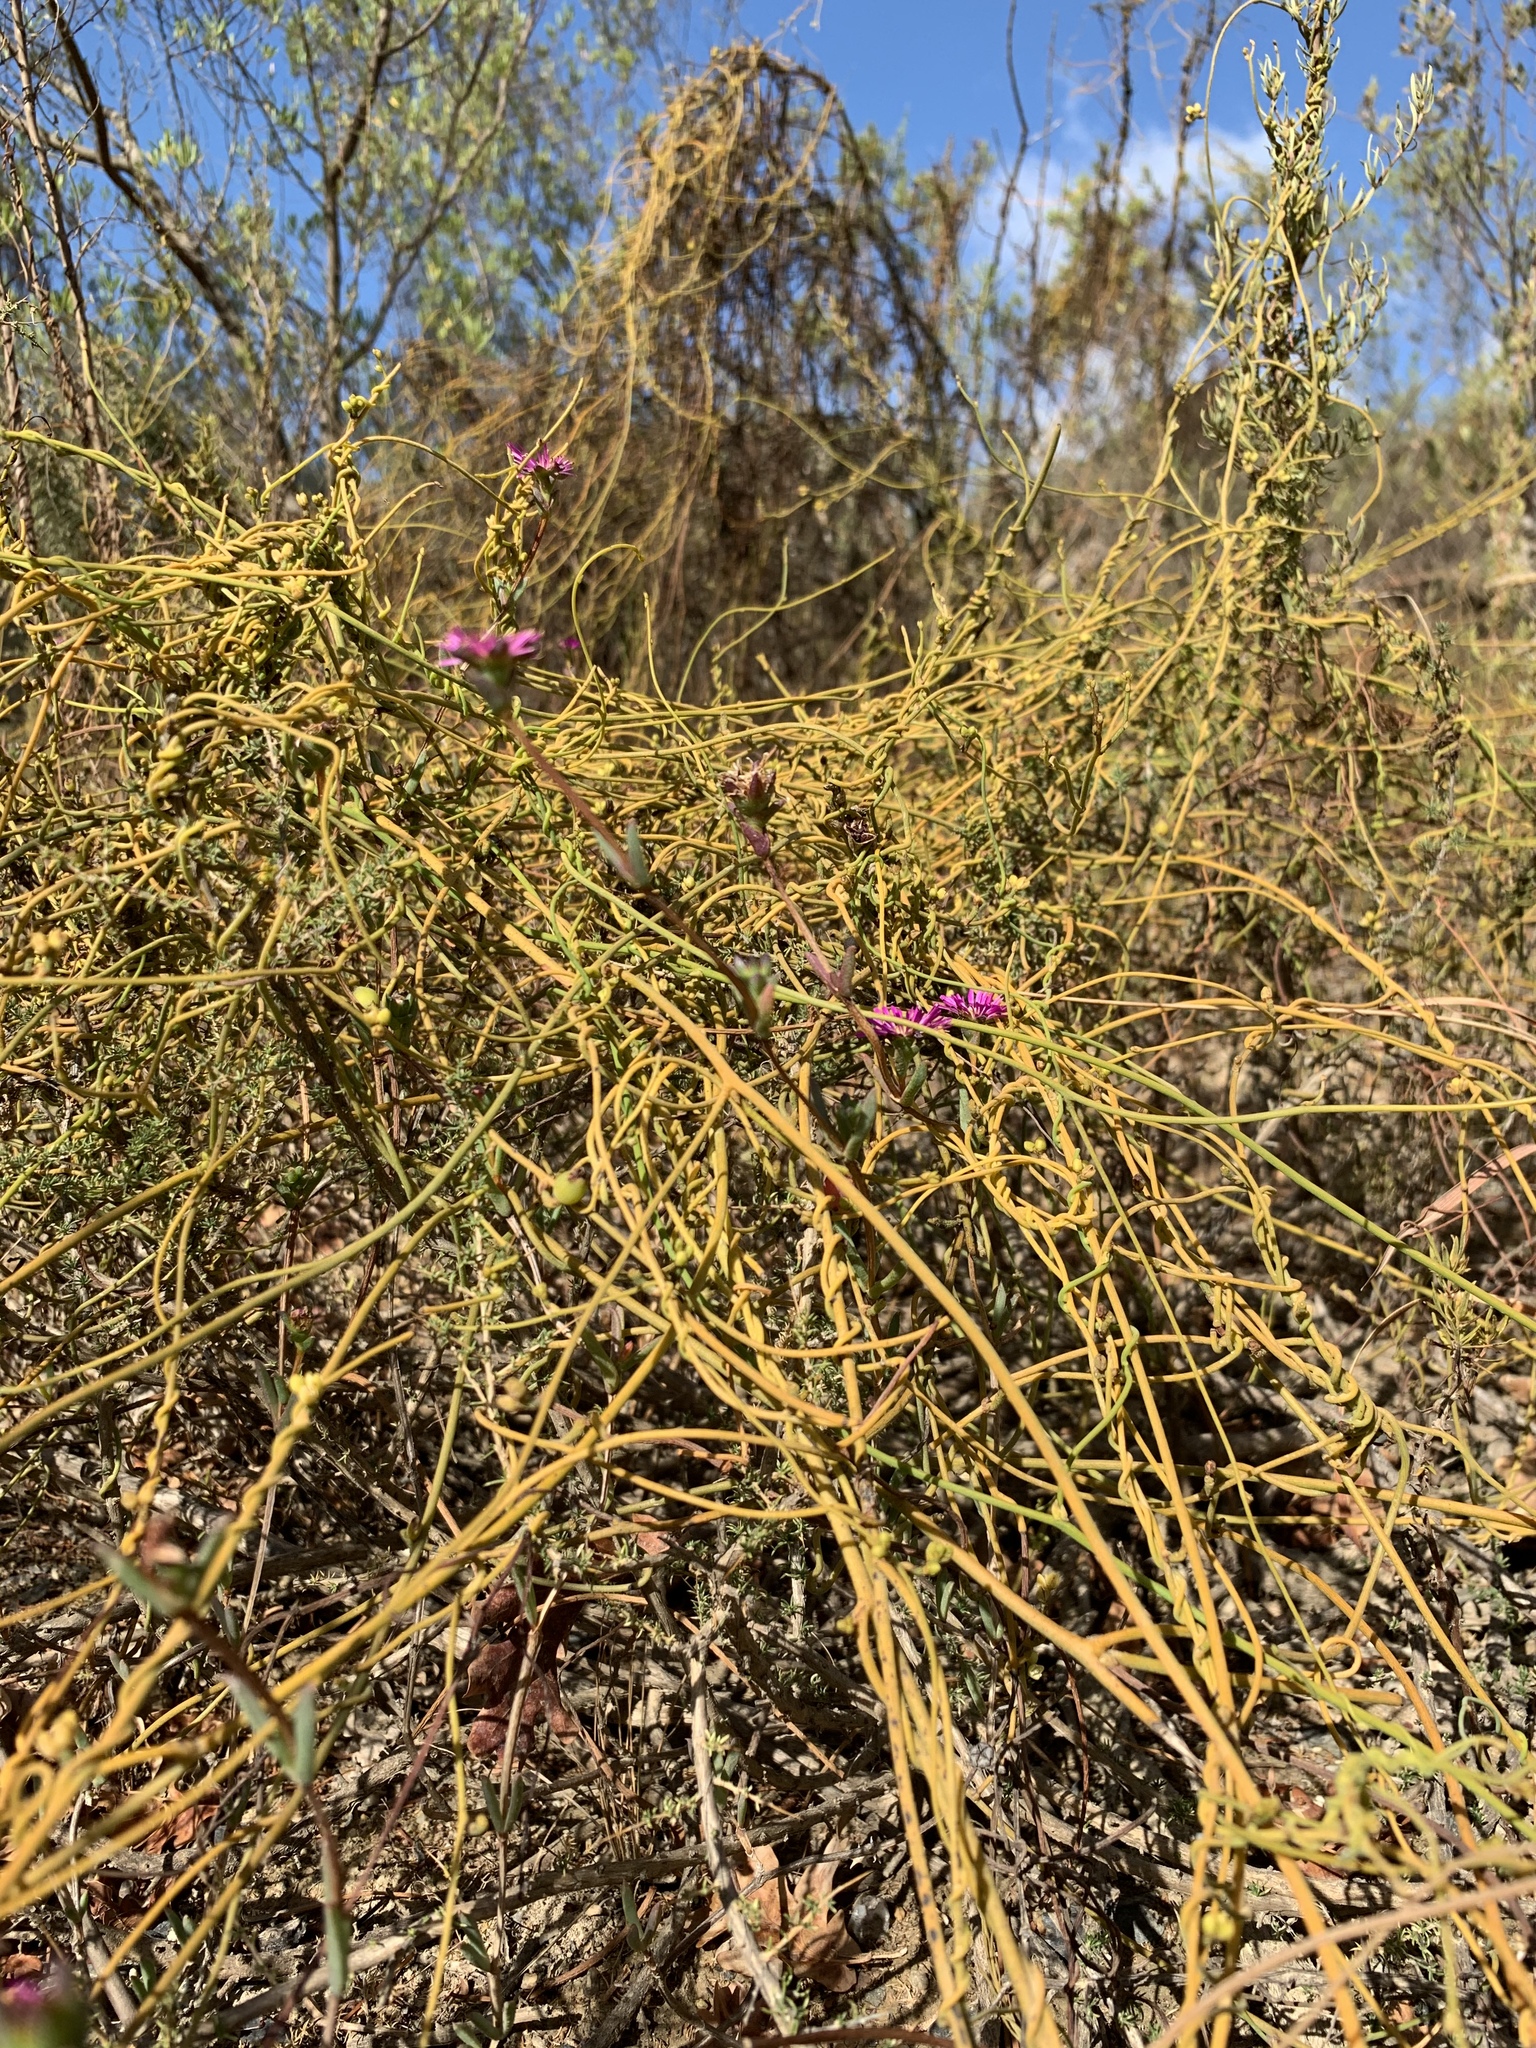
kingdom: Plantae
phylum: Tracheophyta
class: Magnoliopsida
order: Laurales
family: Lauraceae
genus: Cassytha
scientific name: Cassytha ciliolata
